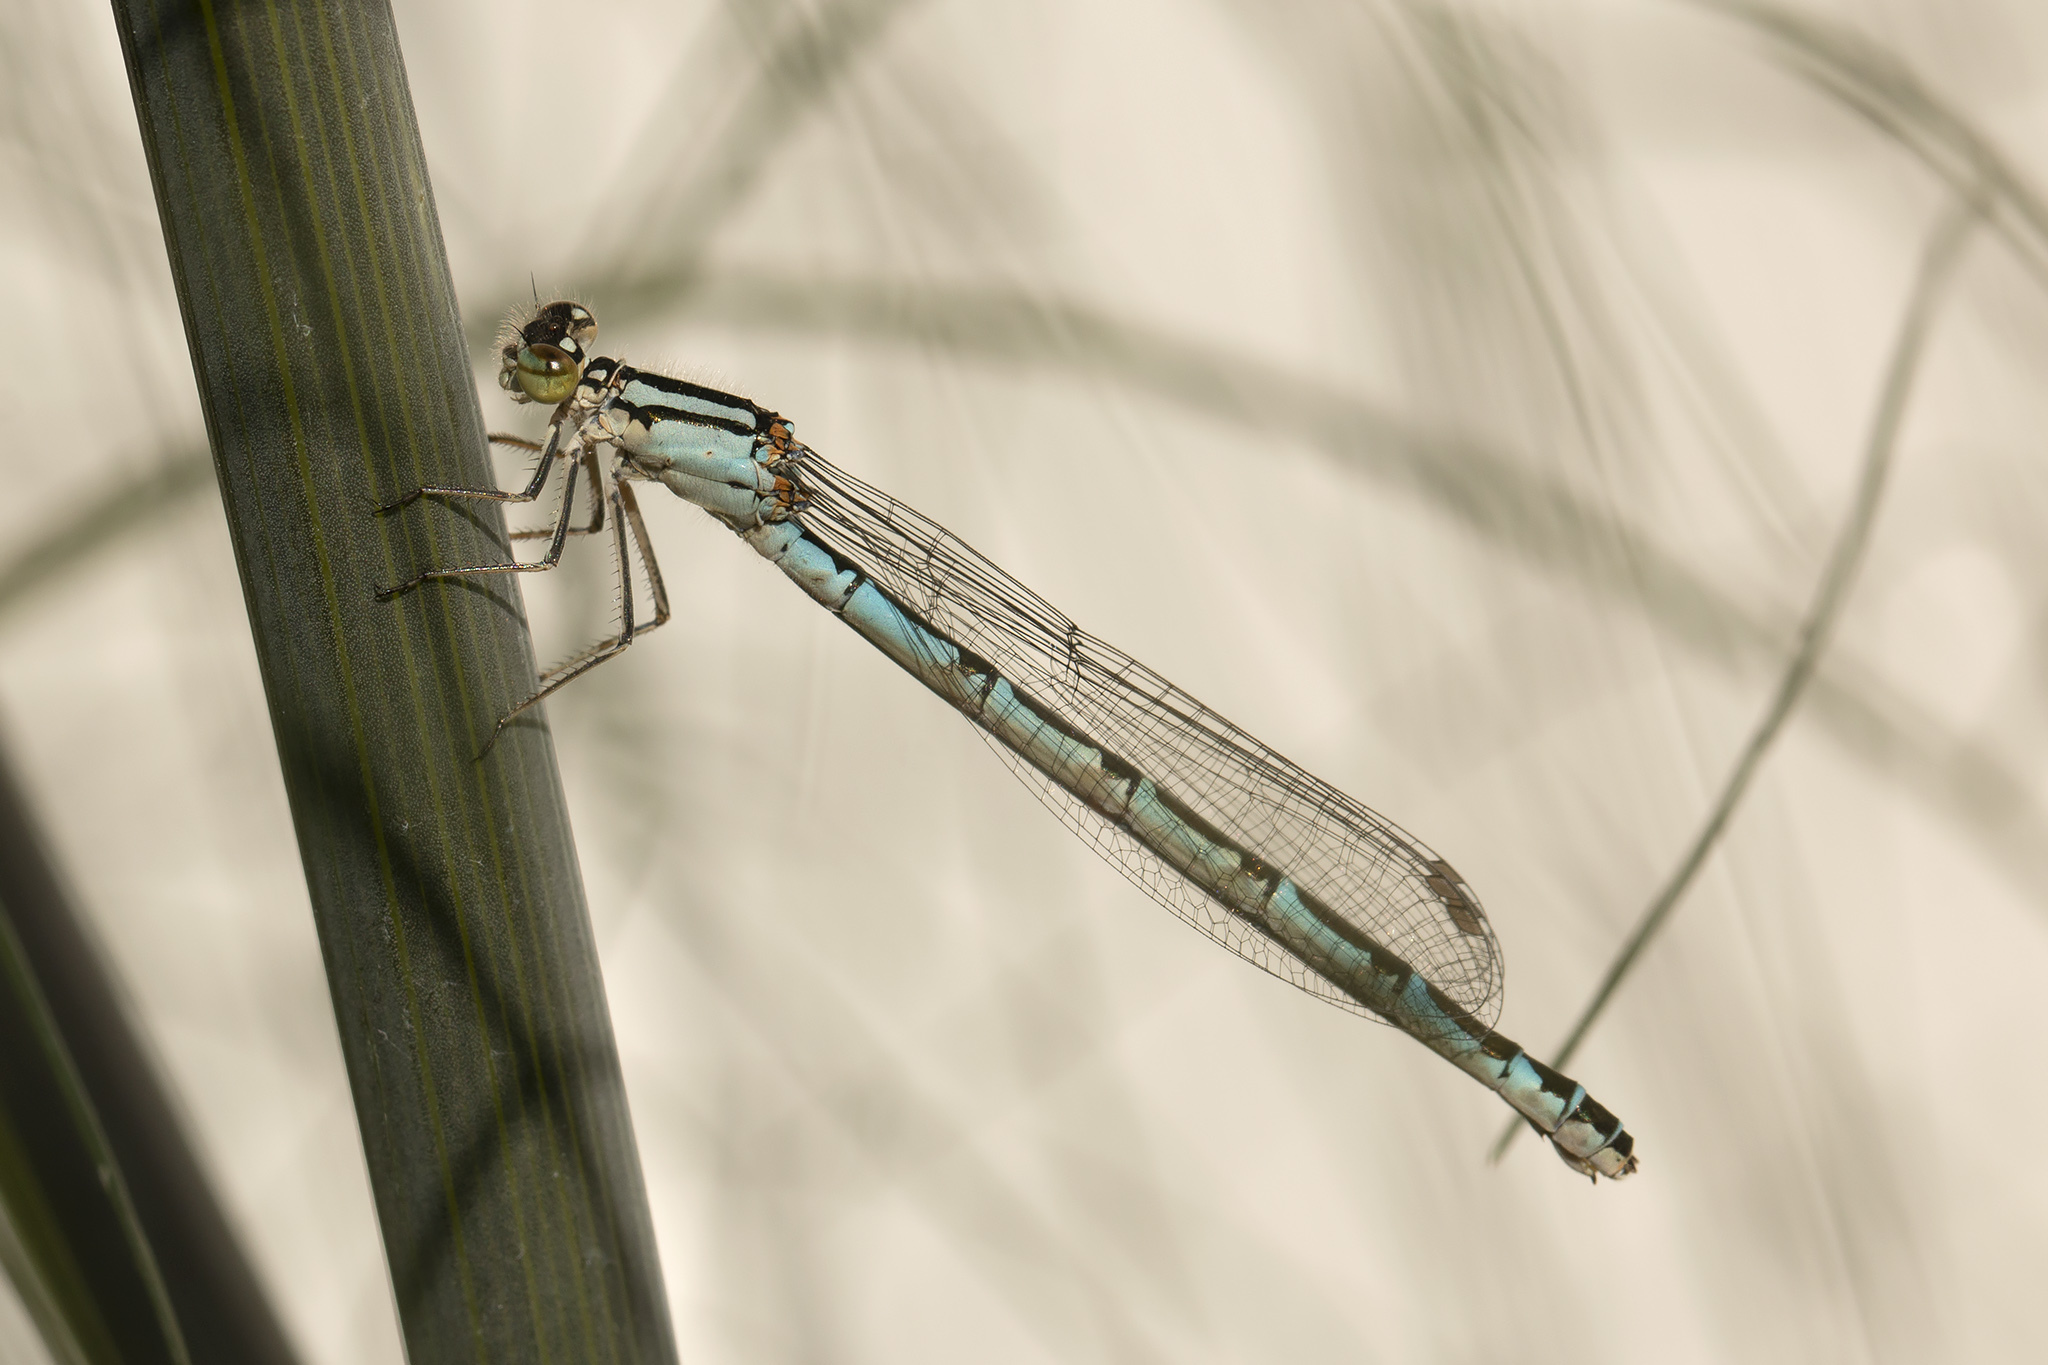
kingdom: Animalia
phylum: Arthropoda
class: Insecta
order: Odonata
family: Coenagrionidae
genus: Enallagma
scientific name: Enallagma cyathigerum
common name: Common blue damselfly
